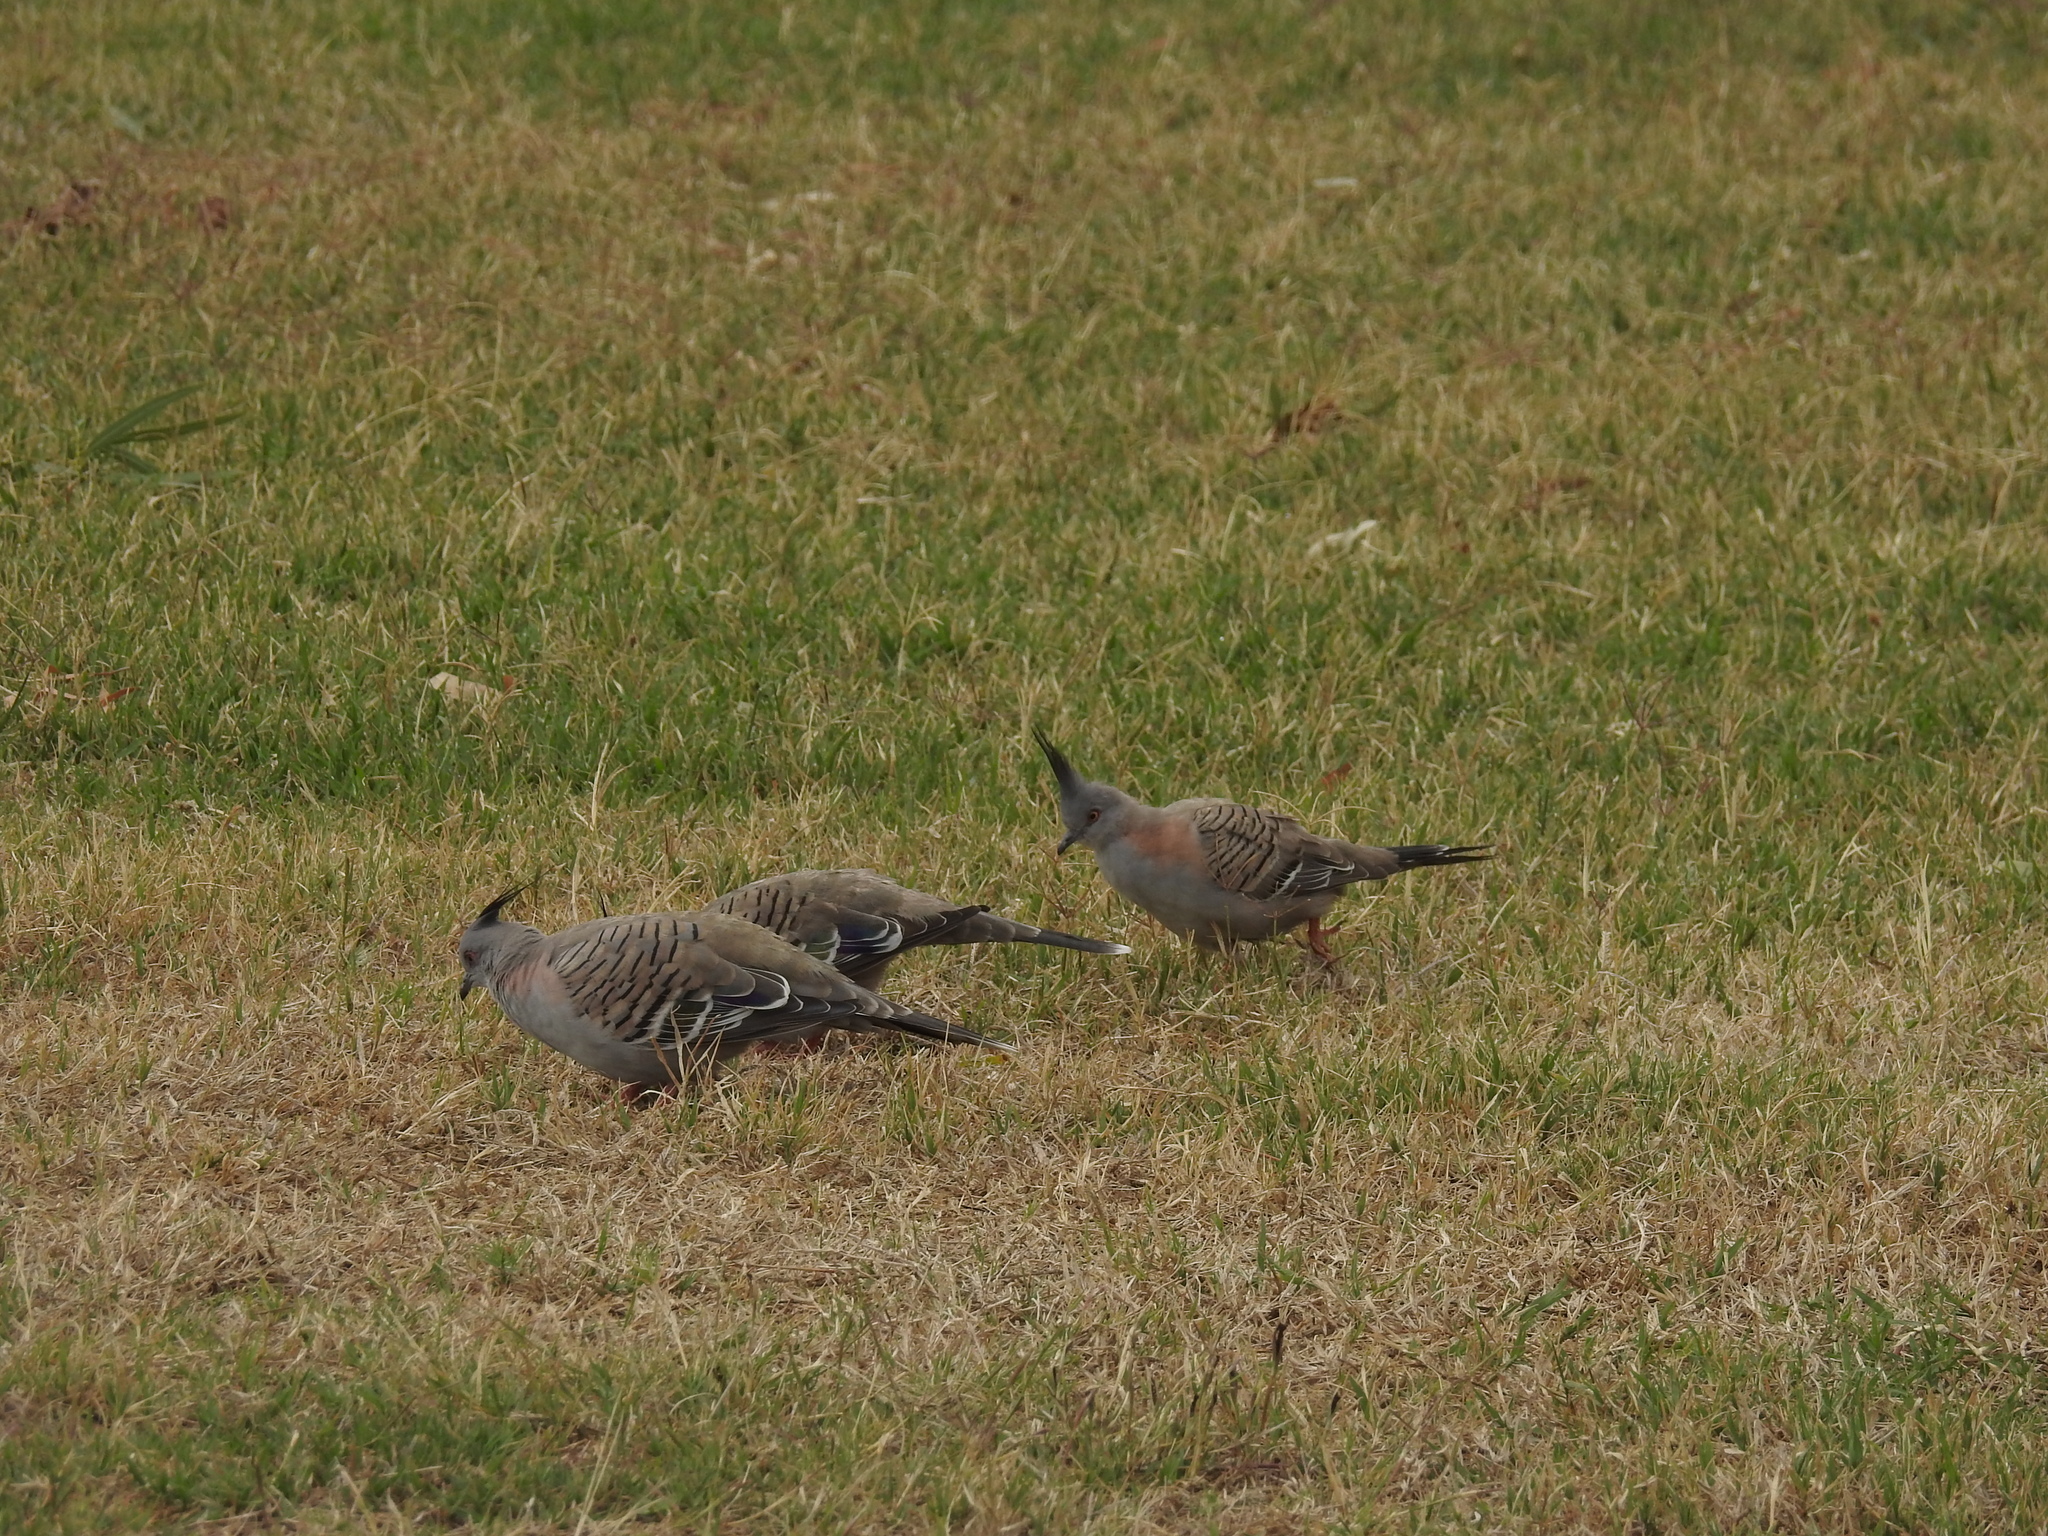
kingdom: Animalia
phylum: Chordata
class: Aves
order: Columbiformes
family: Columbidae
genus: Ocyphaps
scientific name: Ocyphaps lophotes
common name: Crested pigeon
